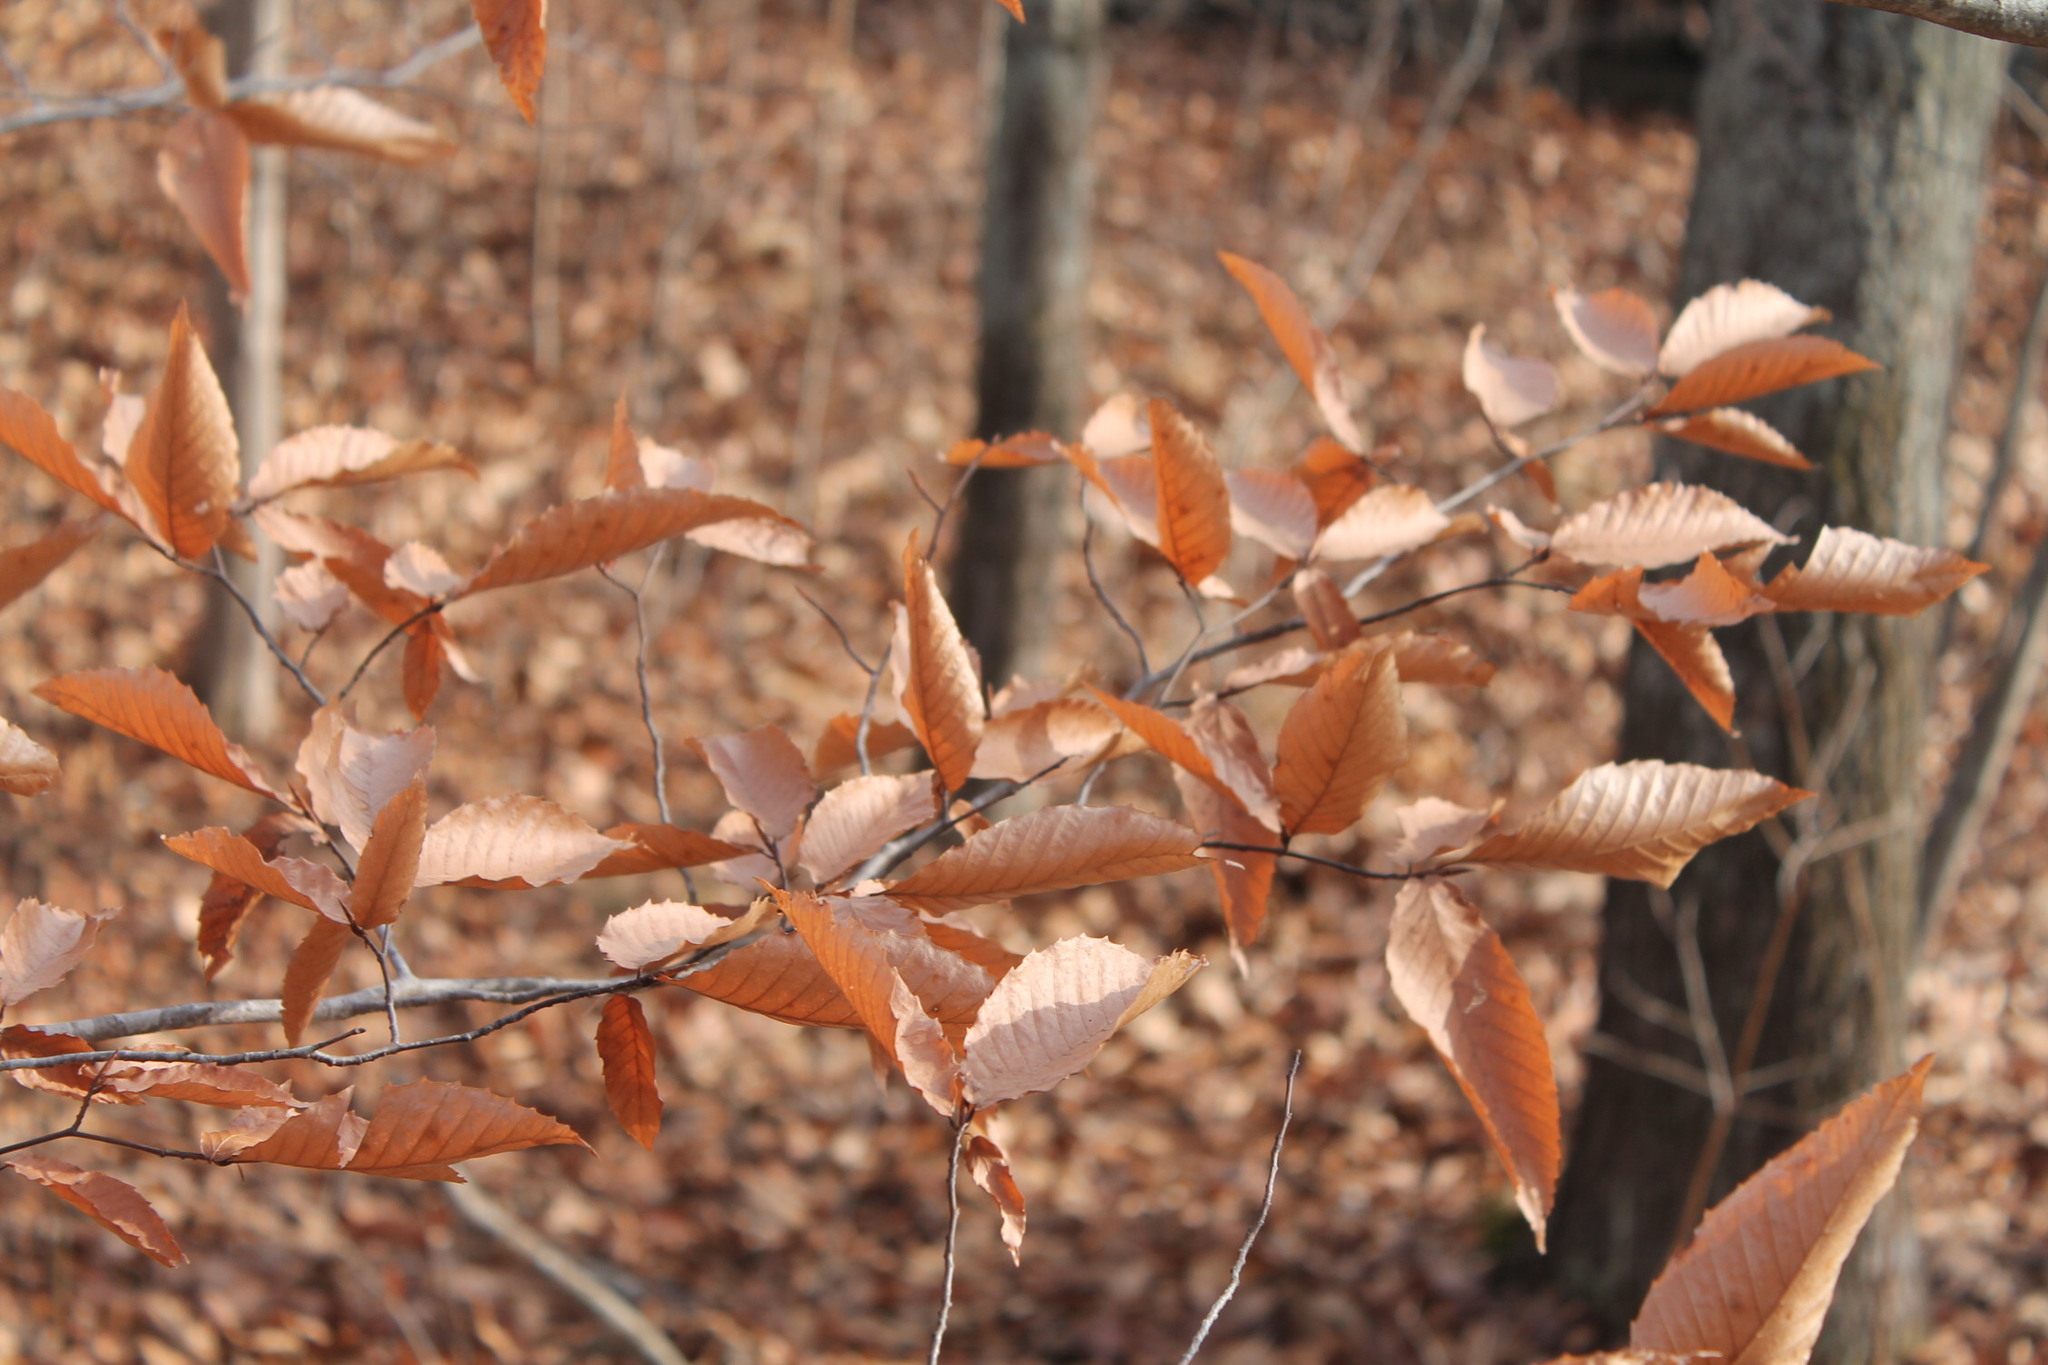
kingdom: Plantae
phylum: Tracheophyta
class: Magnoliopsida
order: Fagales
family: Fagaceae
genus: Fagus
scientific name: Fagus grandifolia
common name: American beech
